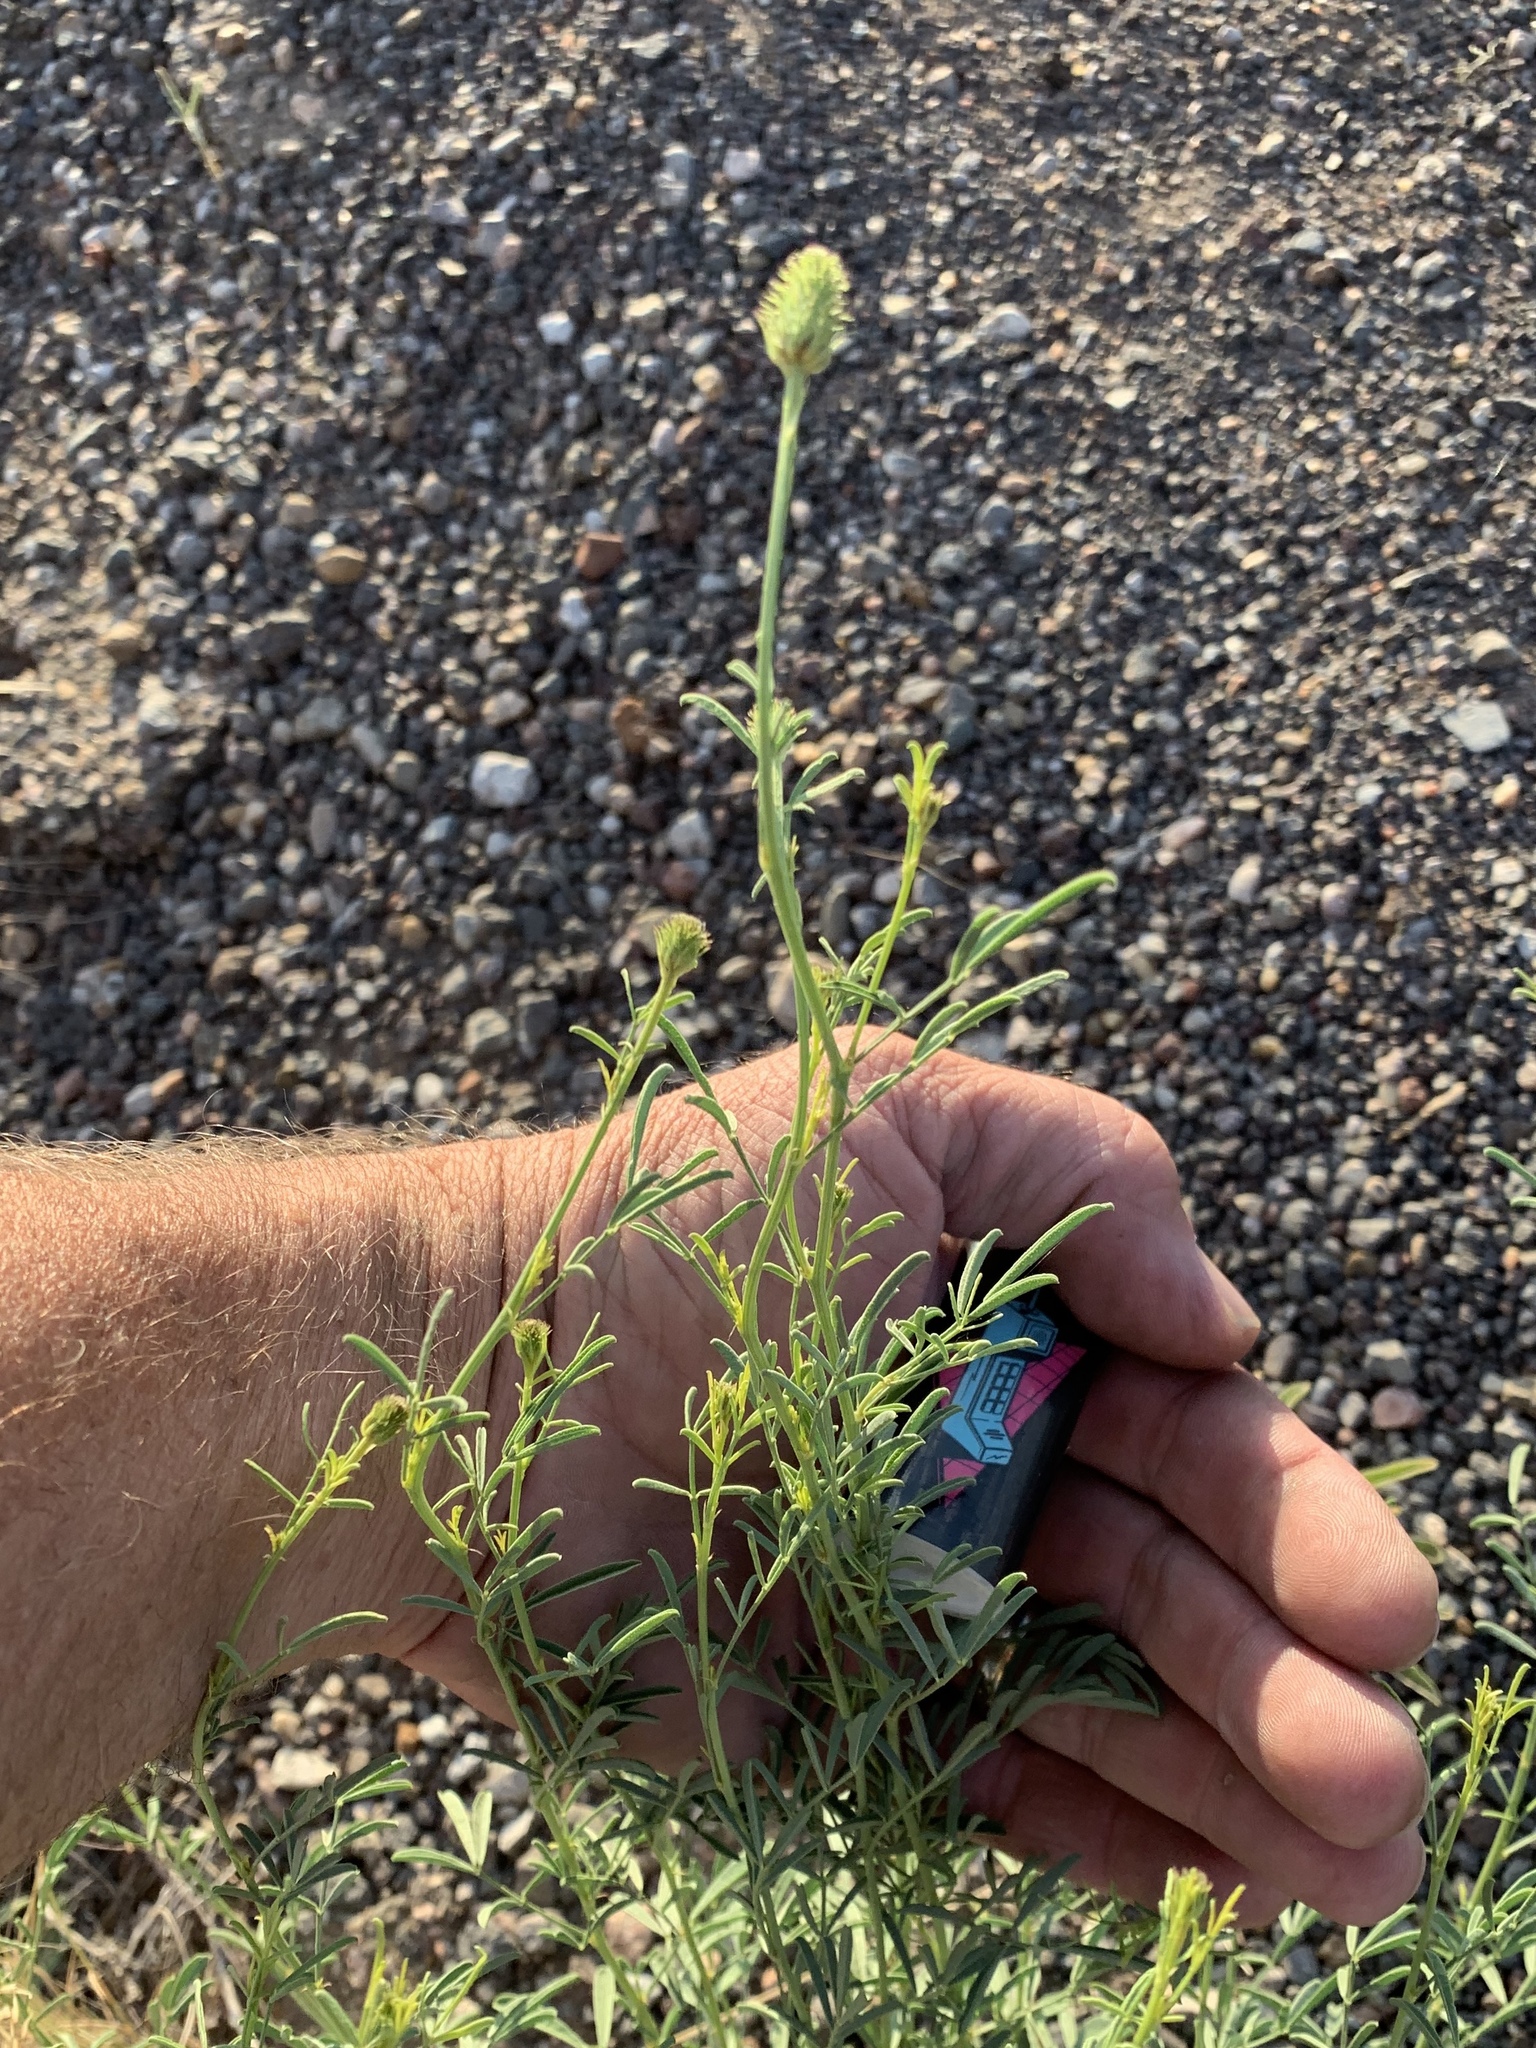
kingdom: Plantae
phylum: Tracheophyta
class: Magnoliopsida
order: Asterales
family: Asteraceae
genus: Ratibida
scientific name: Ratibida columnifera
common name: Prairie coneflower
